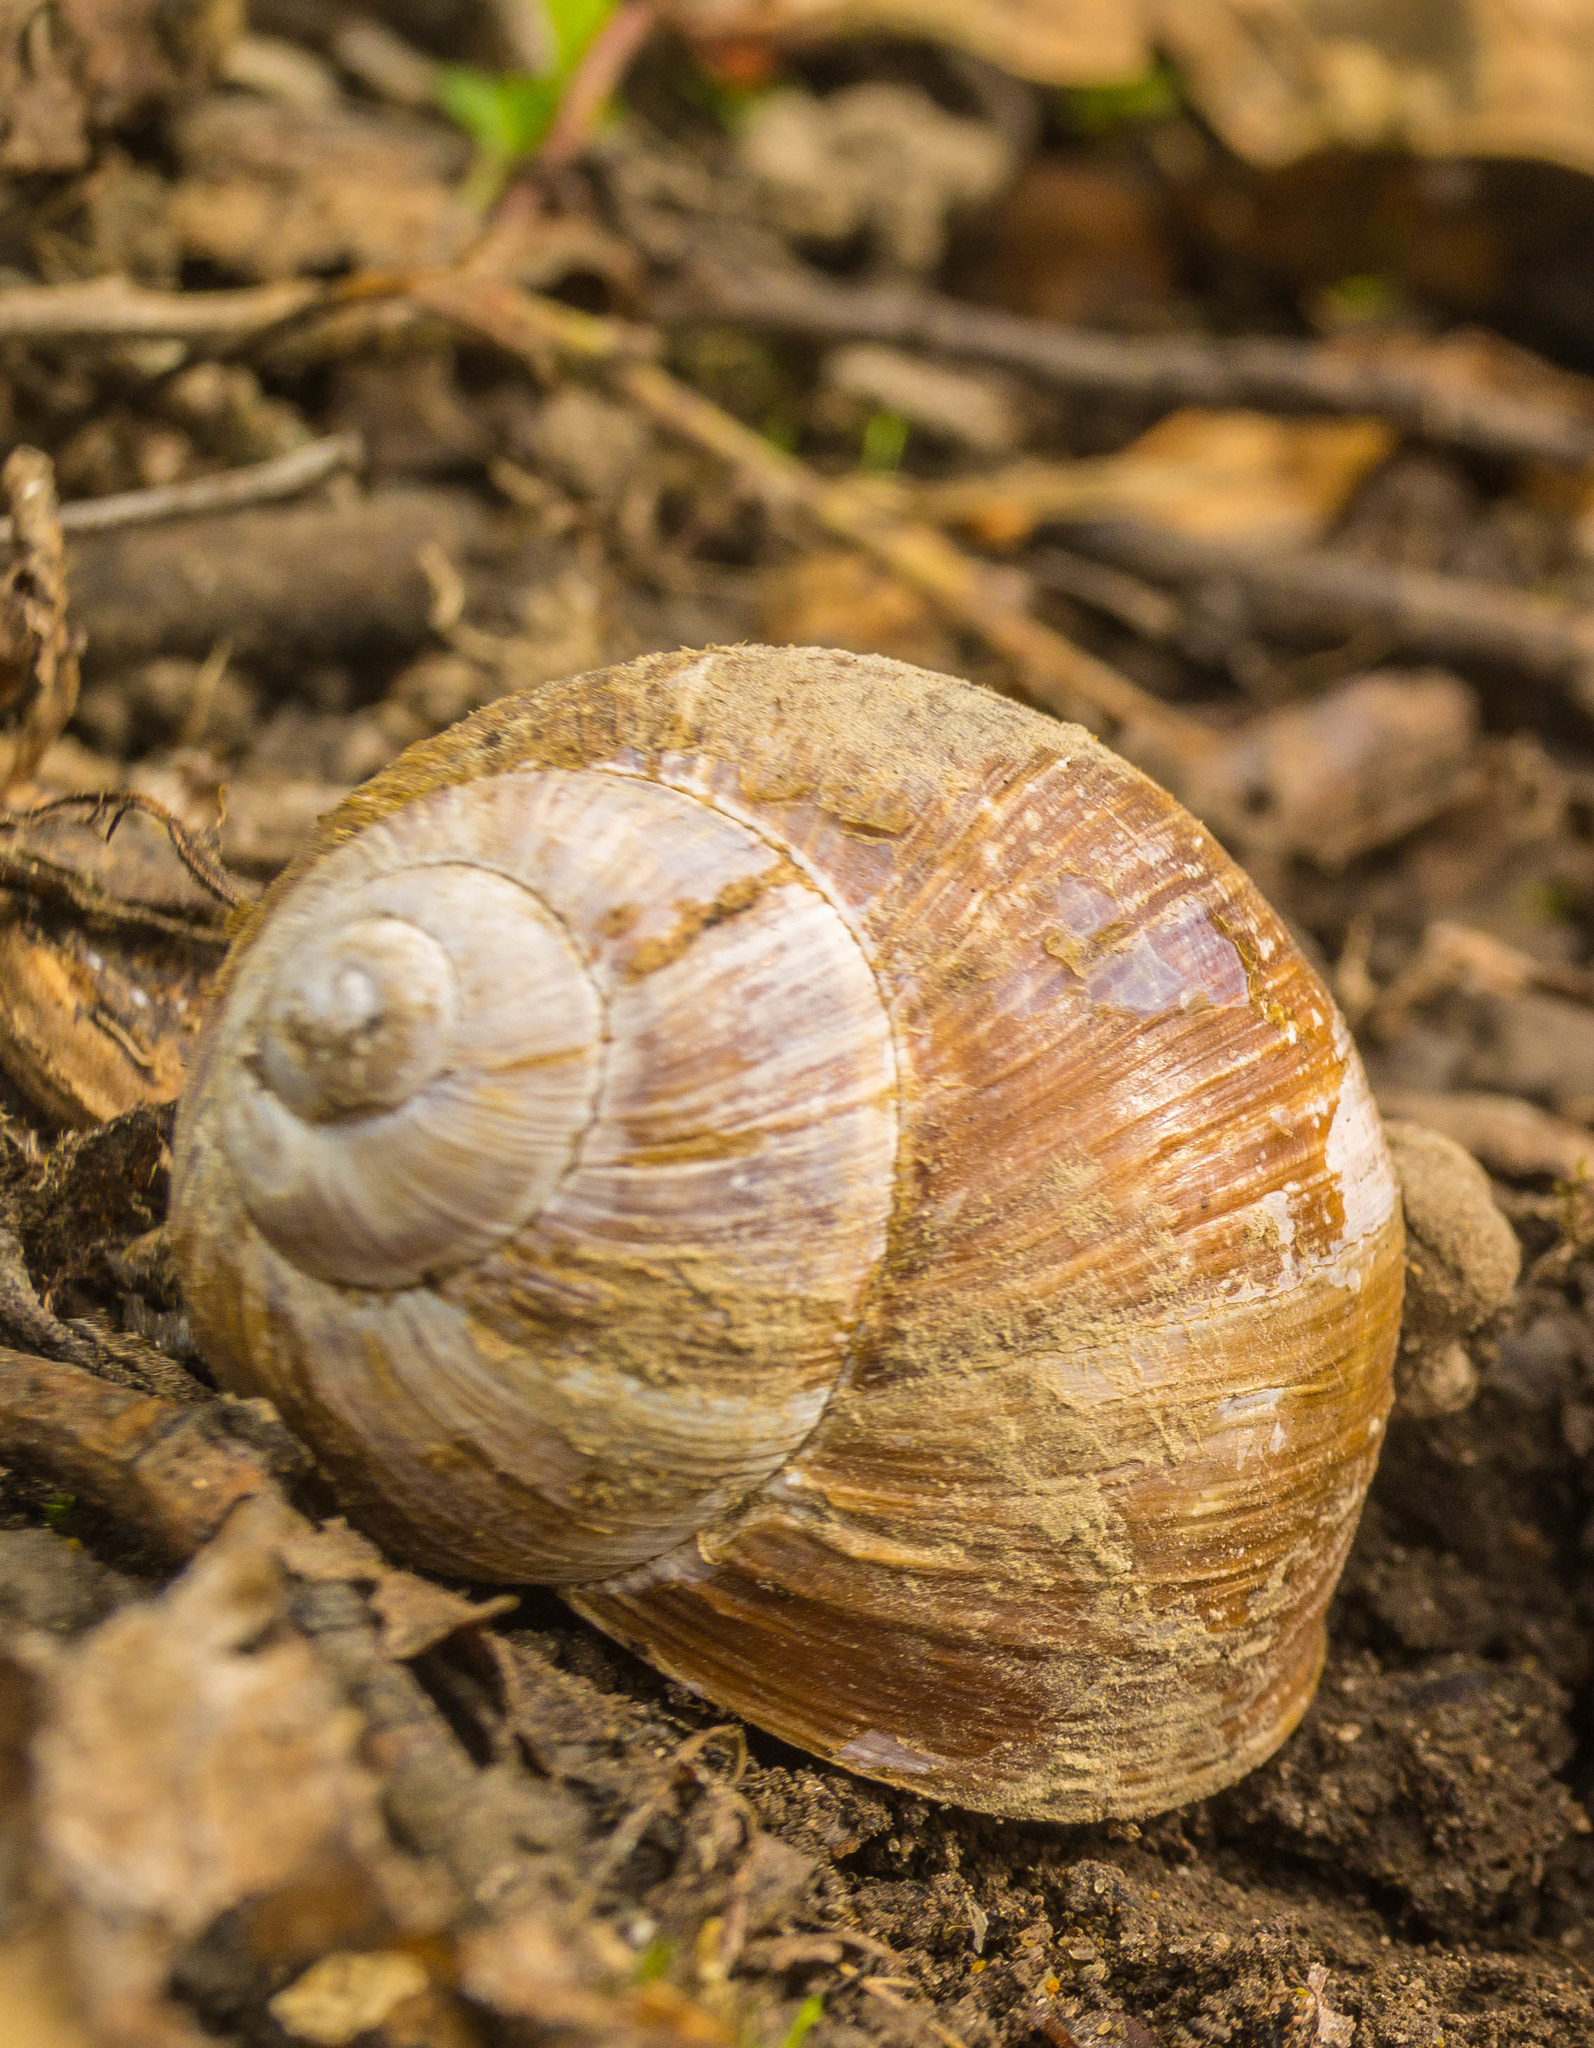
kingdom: Animalia
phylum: Mollusca
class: Gastropoda
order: Stylommatophora
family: Helicidae
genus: Helix
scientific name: Helix pomatia
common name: Roman snail
